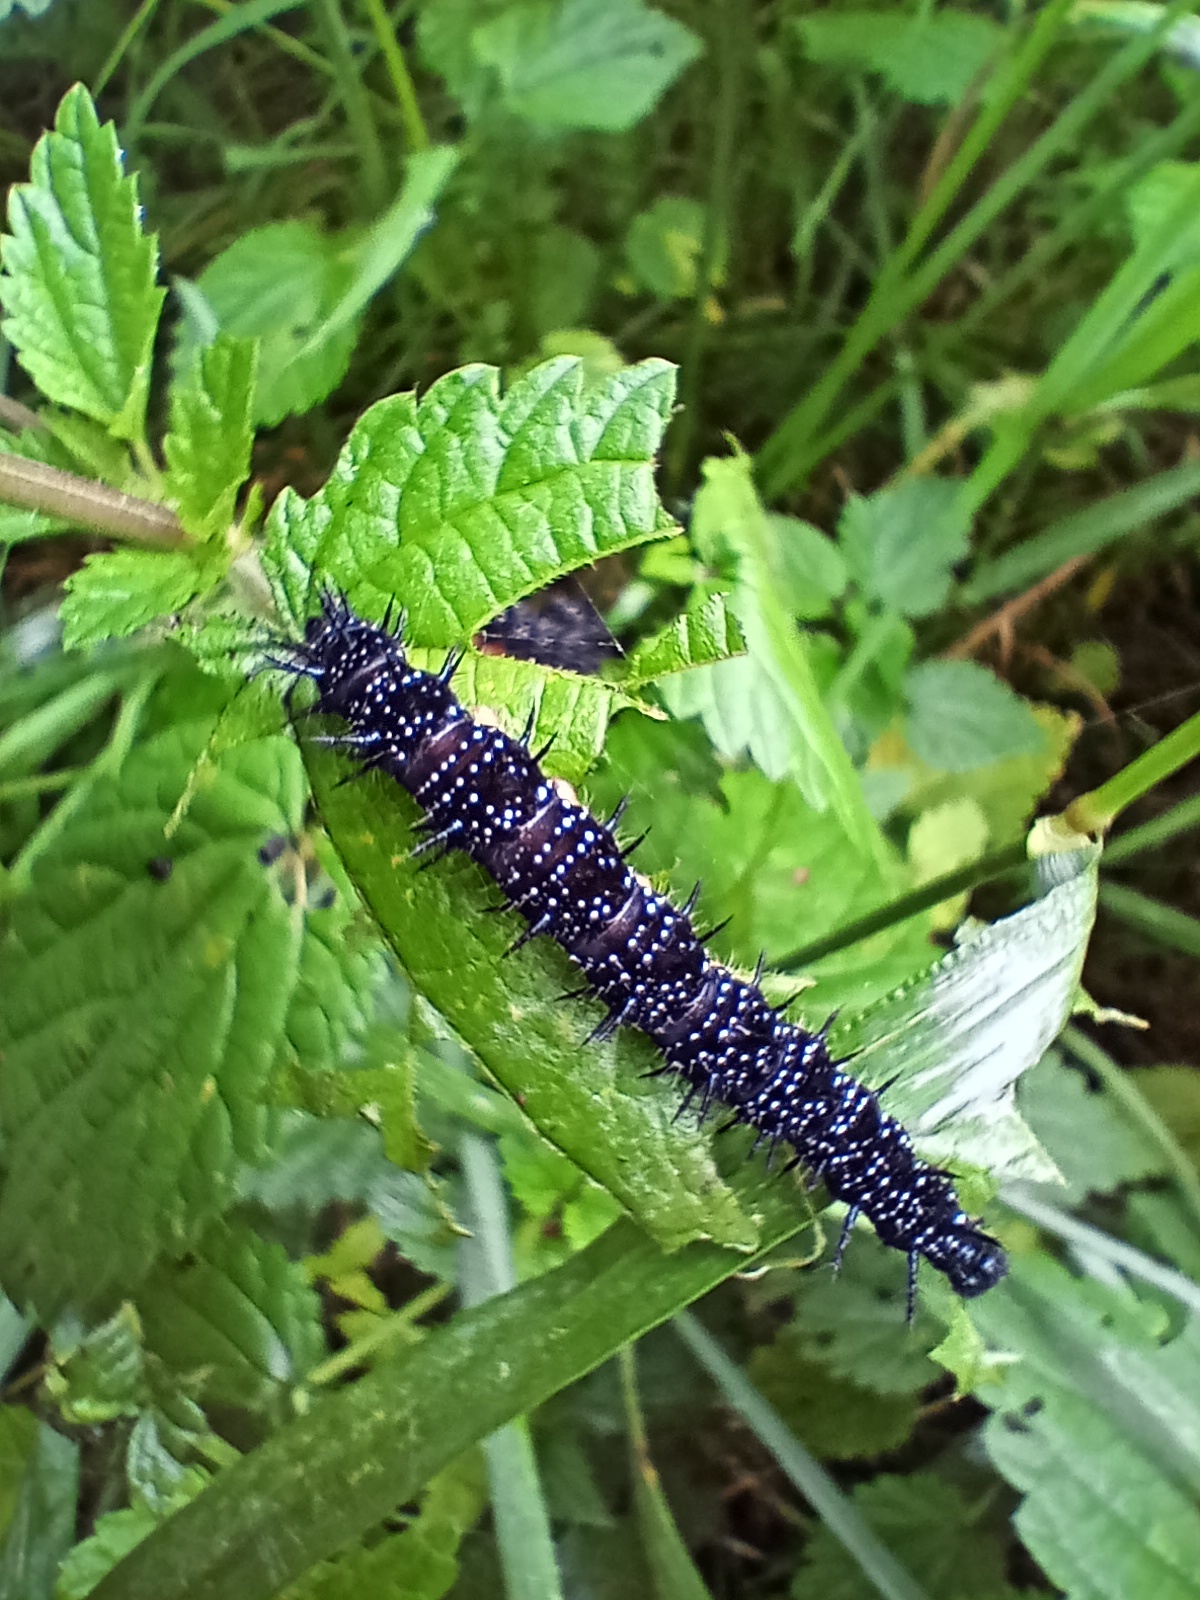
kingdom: Animalia
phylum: Arthropoda
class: Insecta
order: Lepidoptera
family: Nymphalidae
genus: Aglais
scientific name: Aglais io
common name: Peacock
